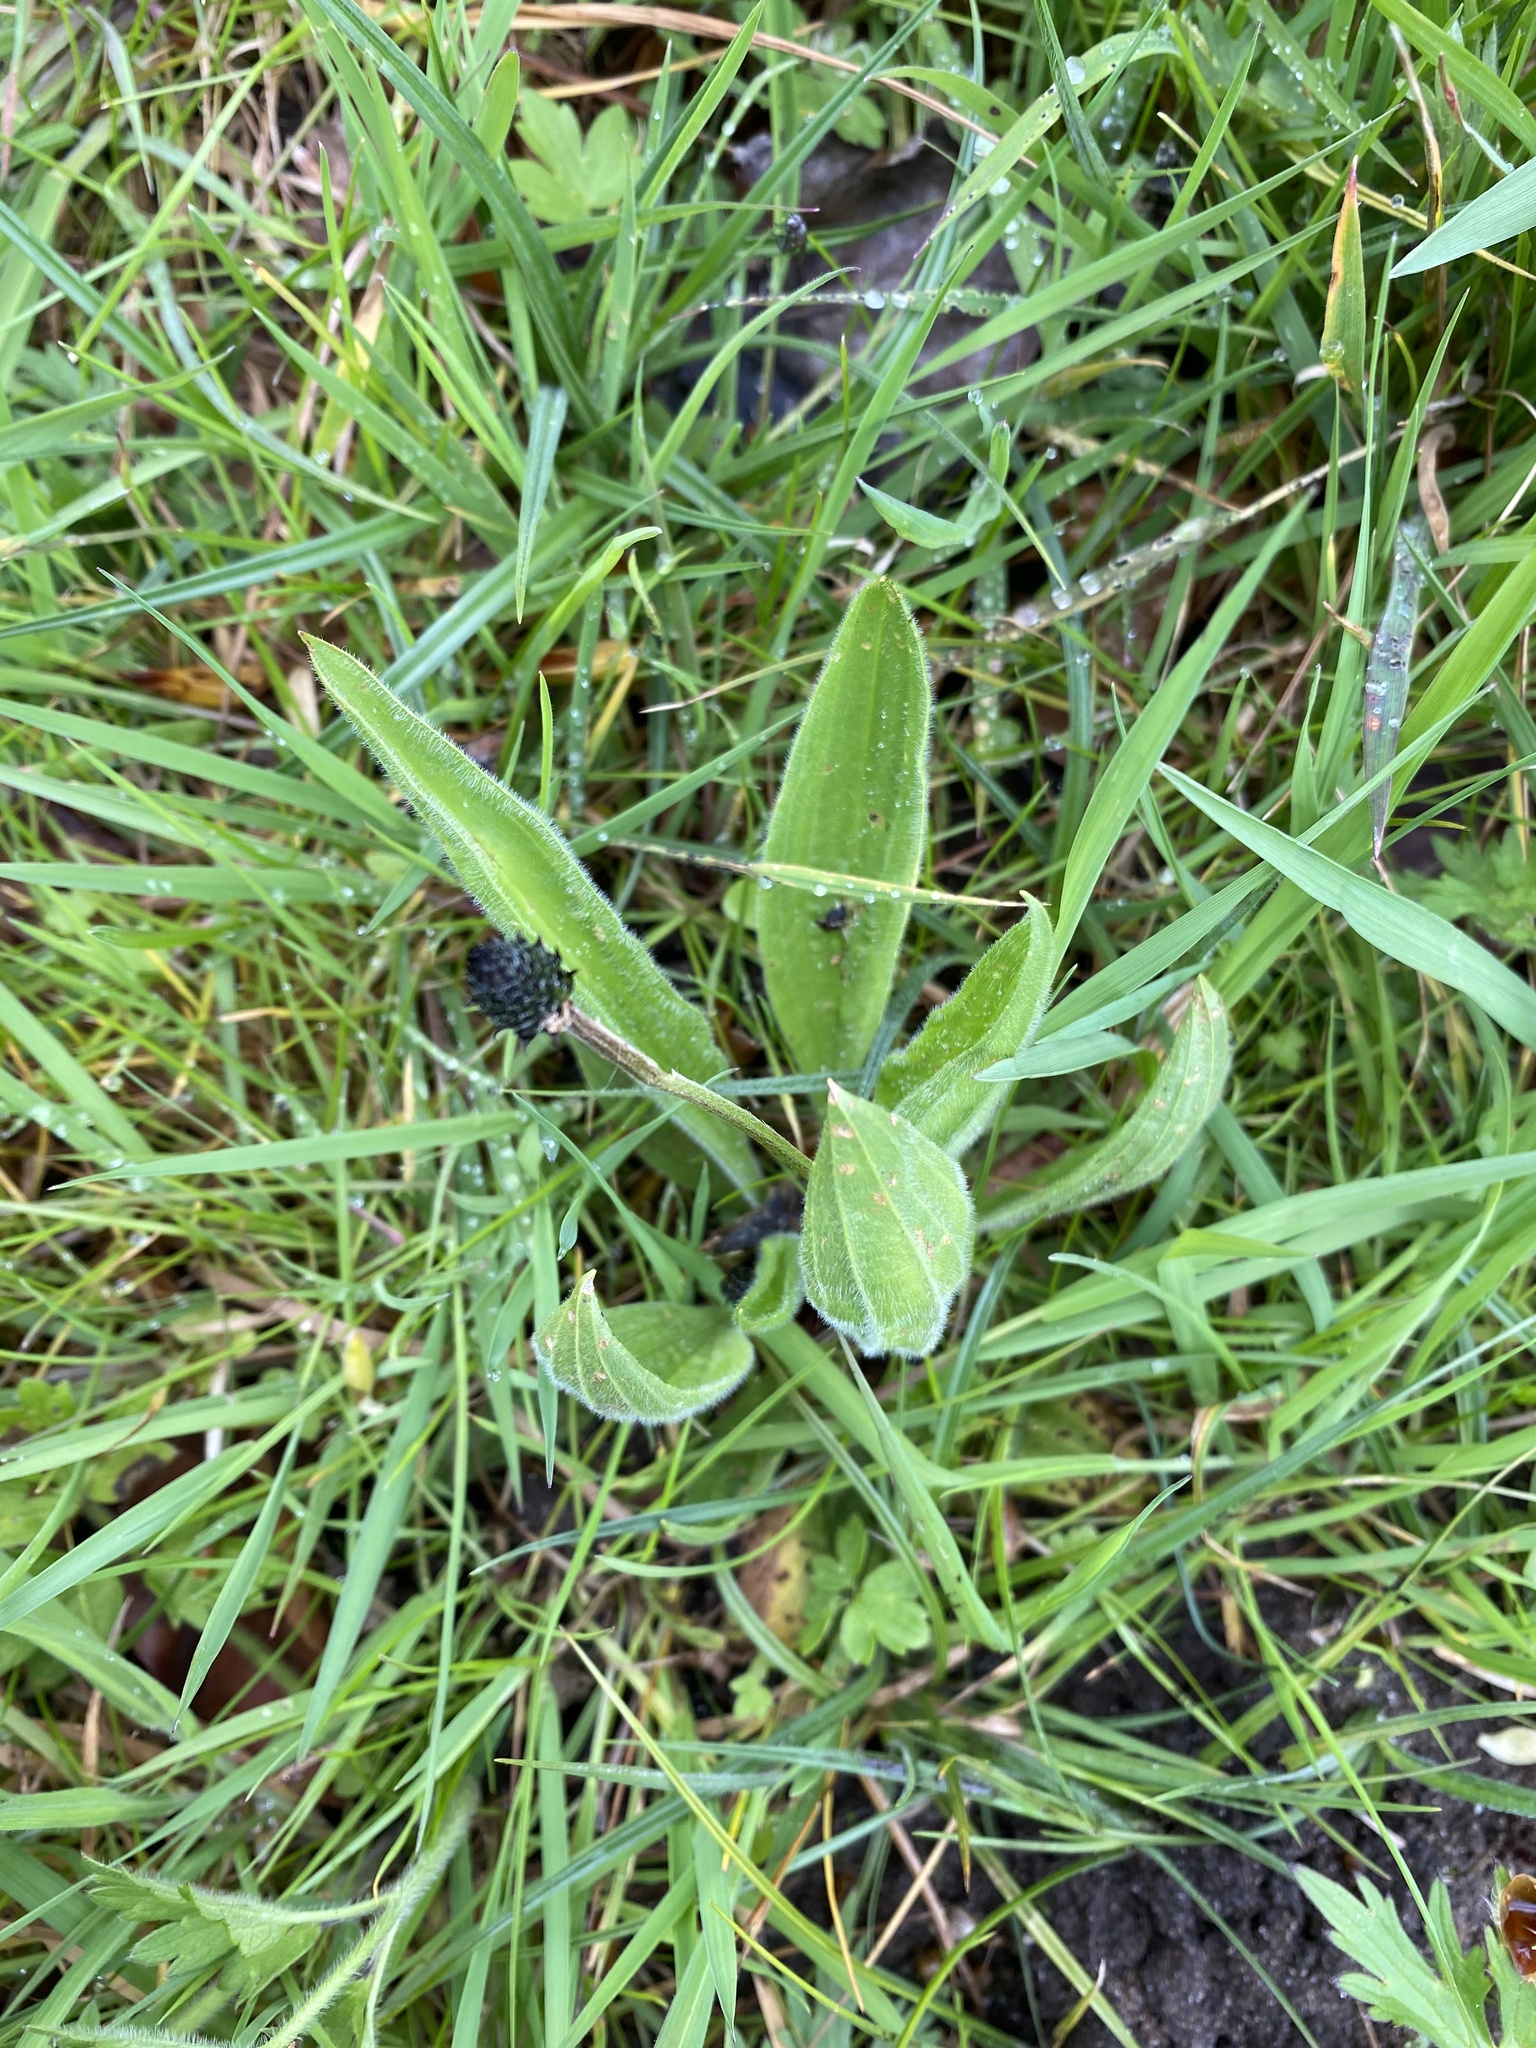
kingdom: Plantae
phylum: Tracheophyta
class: Magnoliopsida
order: Lamiales
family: Plantaginaceae
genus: Plantago
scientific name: Plantago lanceolata
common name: Ribwort plantain
